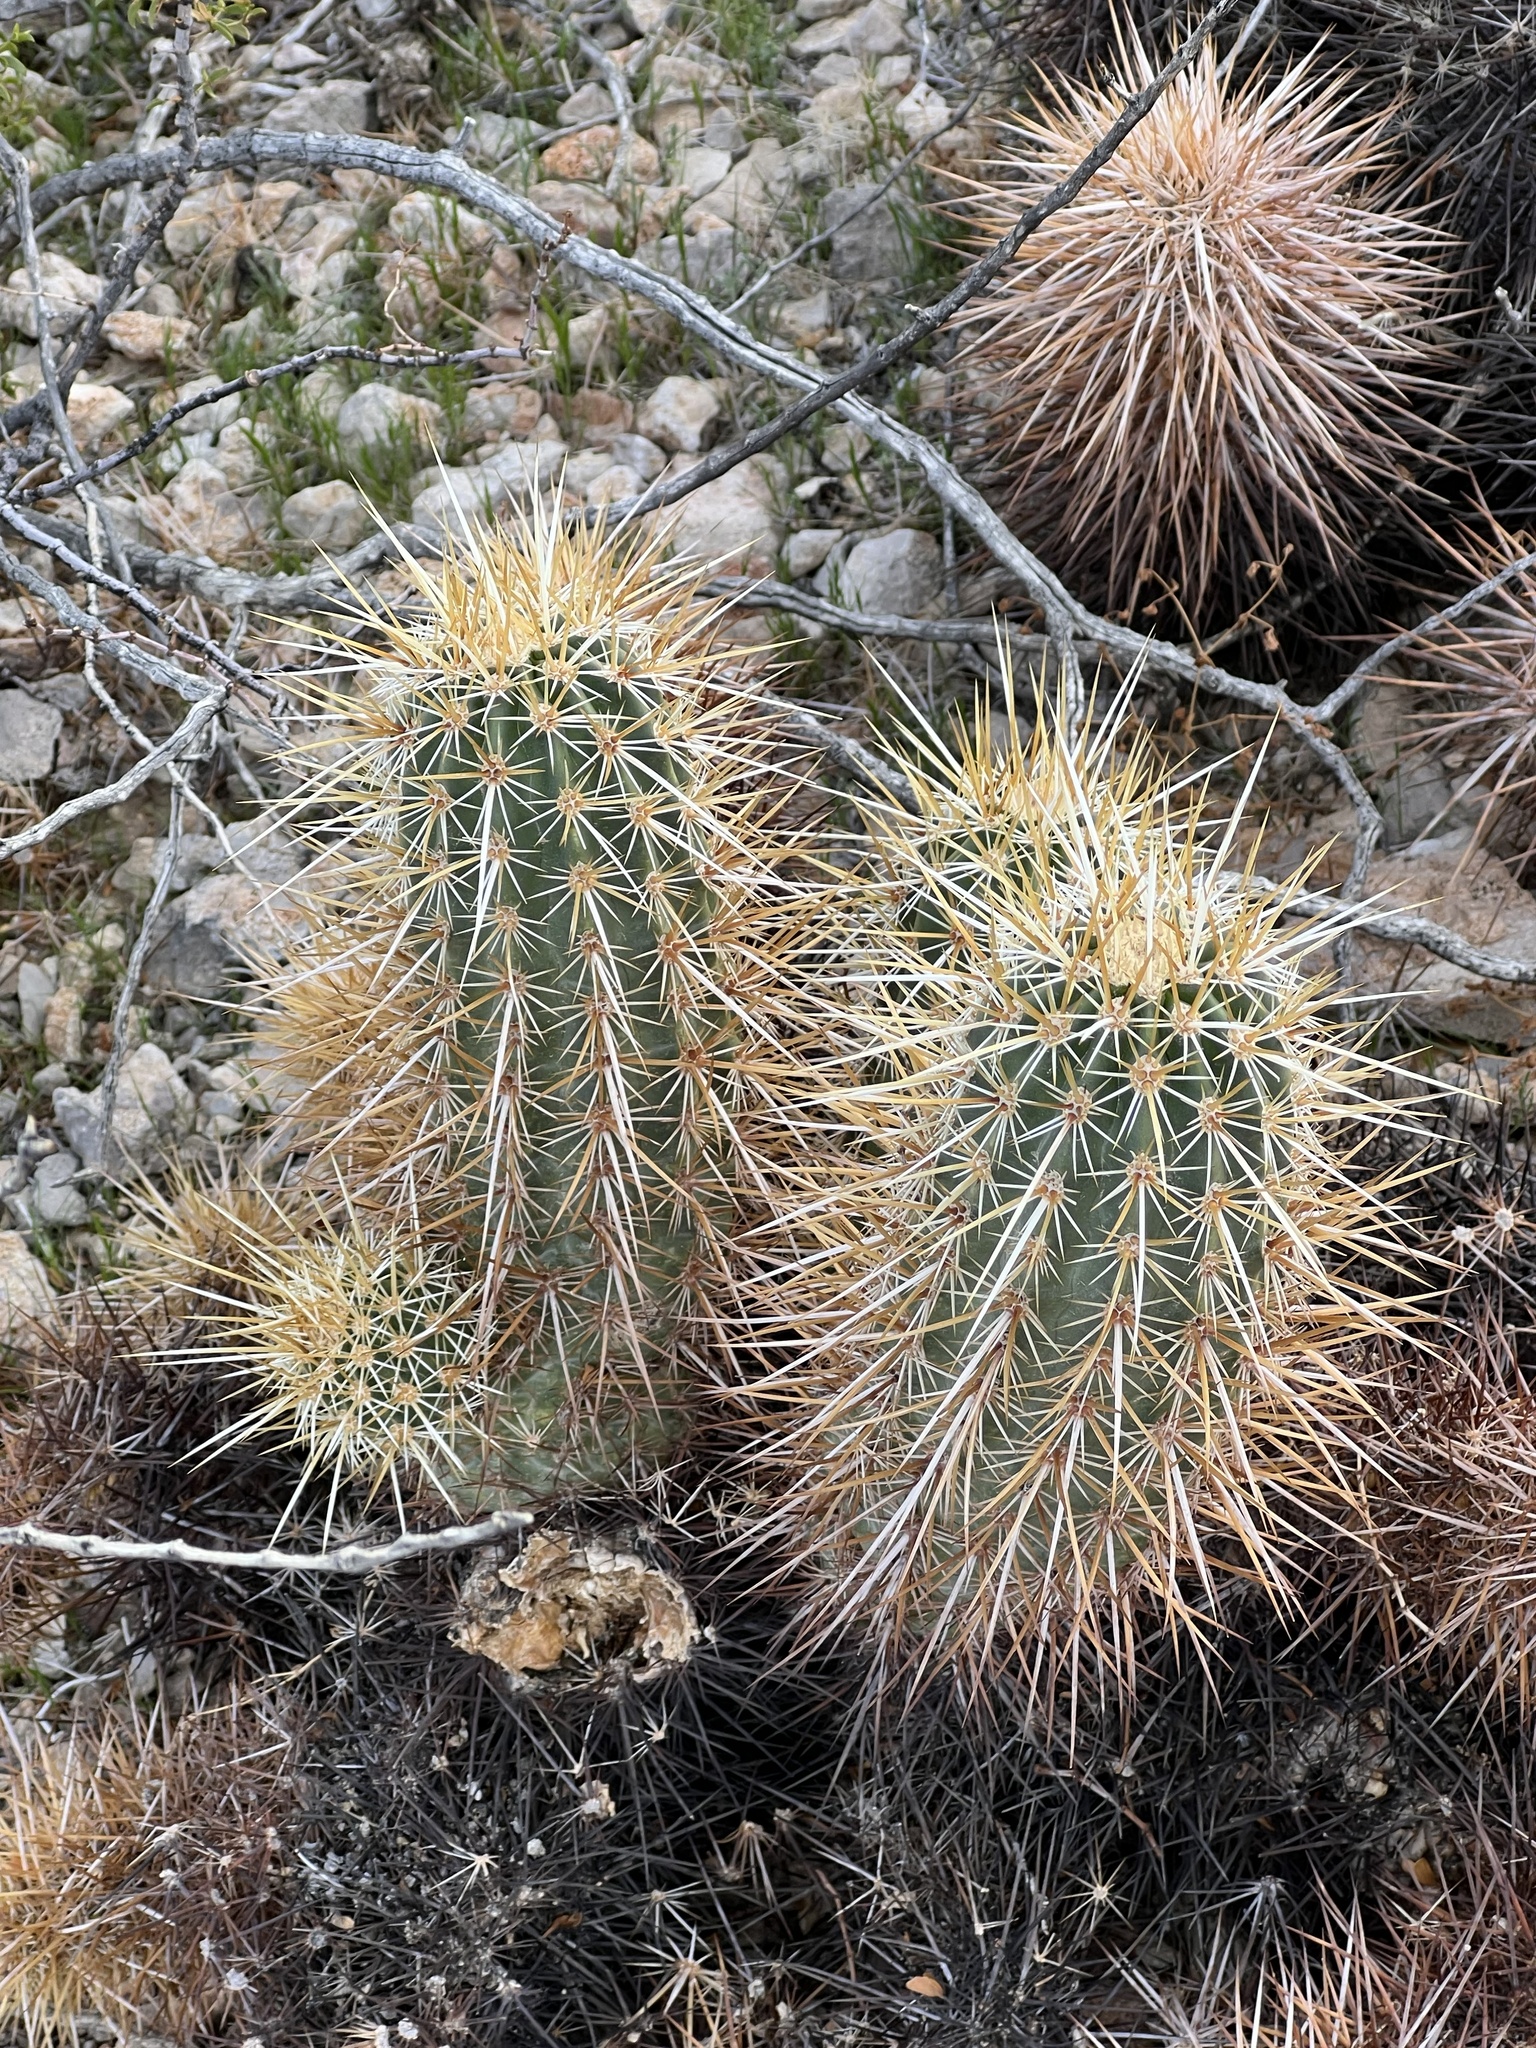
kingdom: Plantae
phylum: Tracheophyta
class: Magnoliopsida
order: Caryophyllales
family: Cactaceae
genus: Echinocereus
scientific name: Echinocereus engelmannii
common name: Engelmann's hedgehog cactus
